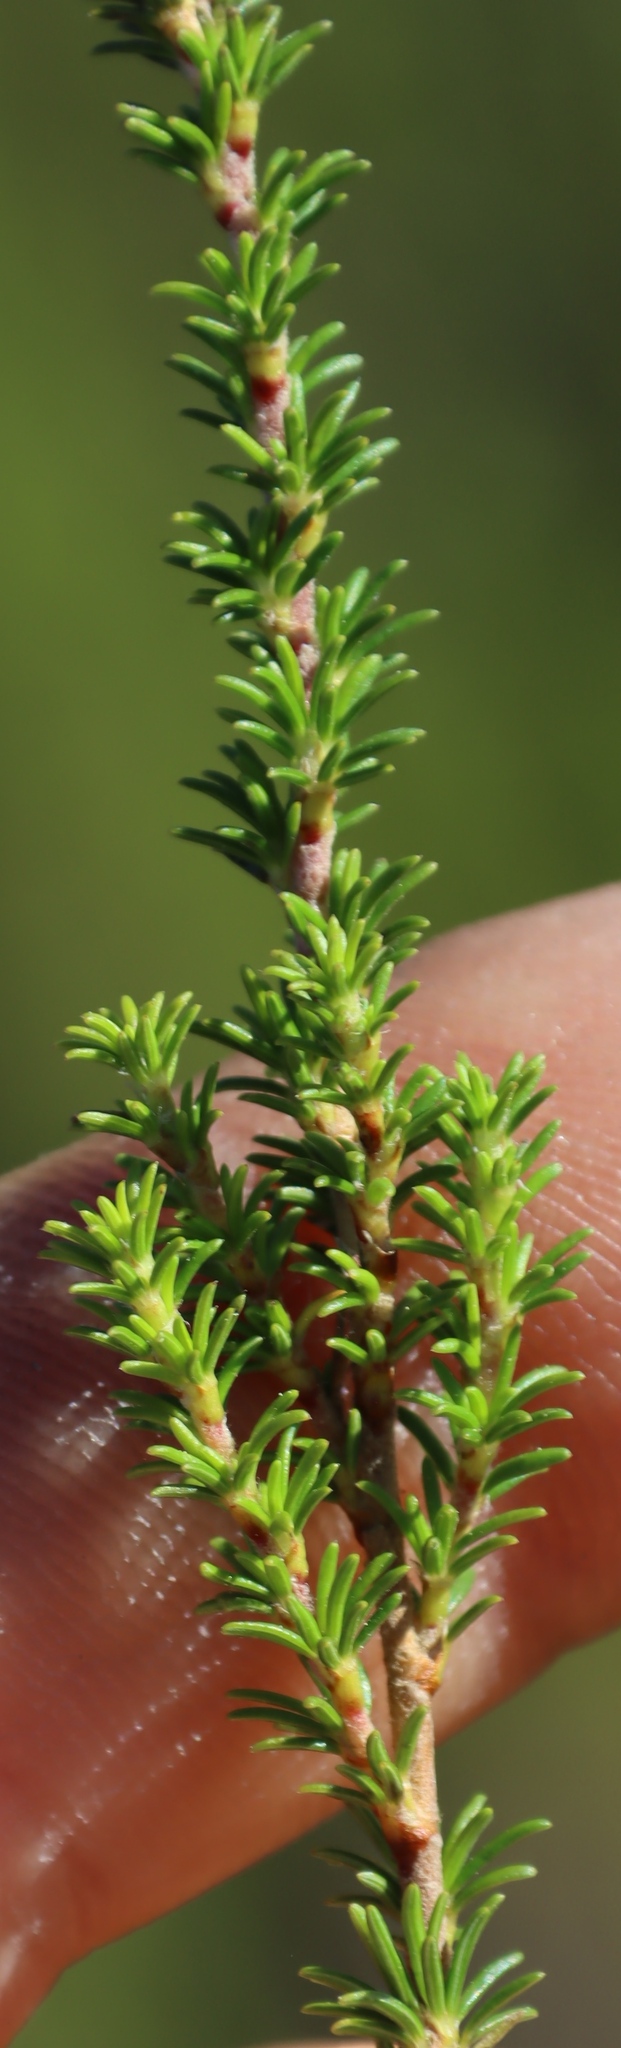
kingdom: Plantae
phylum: Tracheophyta
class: Magnoliopsida
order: Rosales
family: Rosaceae
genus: Cliffortia
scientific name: Cliffortia linearifolia
